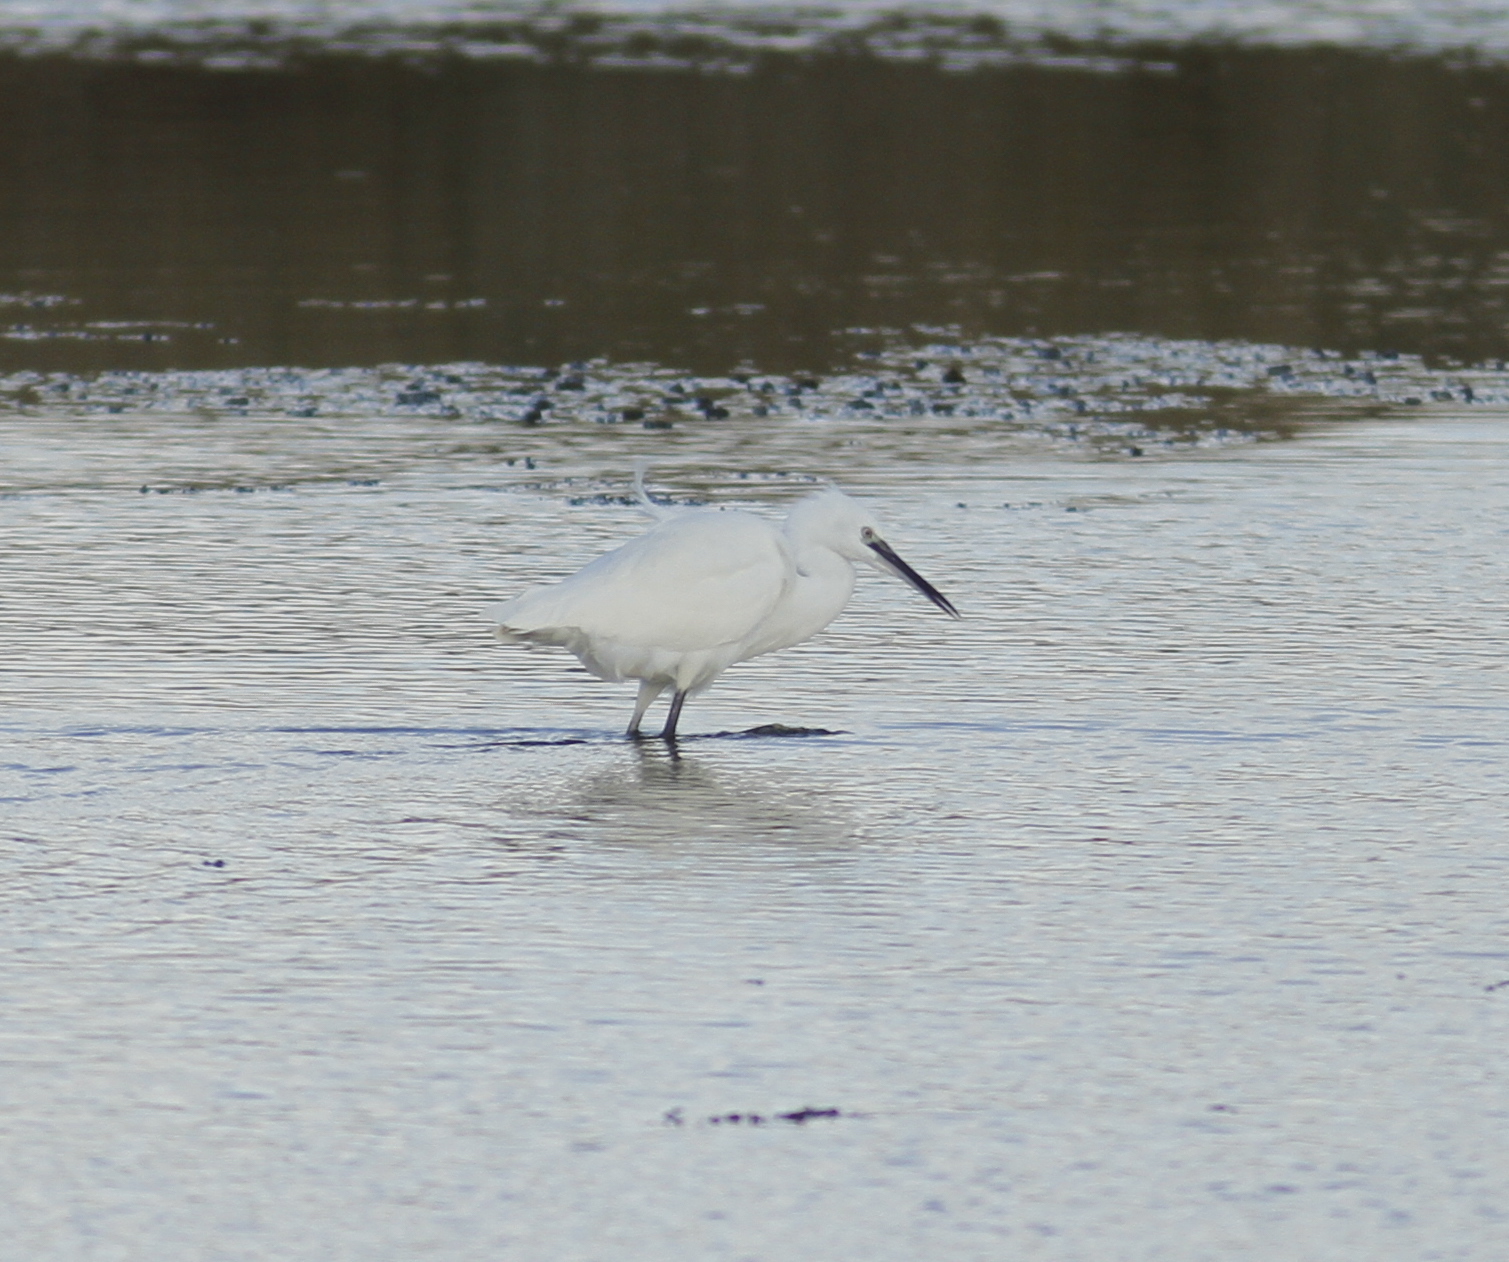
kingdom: Animalia
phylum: Chordata
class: Aves
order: Pelecaniformes
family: Ardeidae
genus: Egretta
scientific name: Egretta garzetta
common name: Little egret
